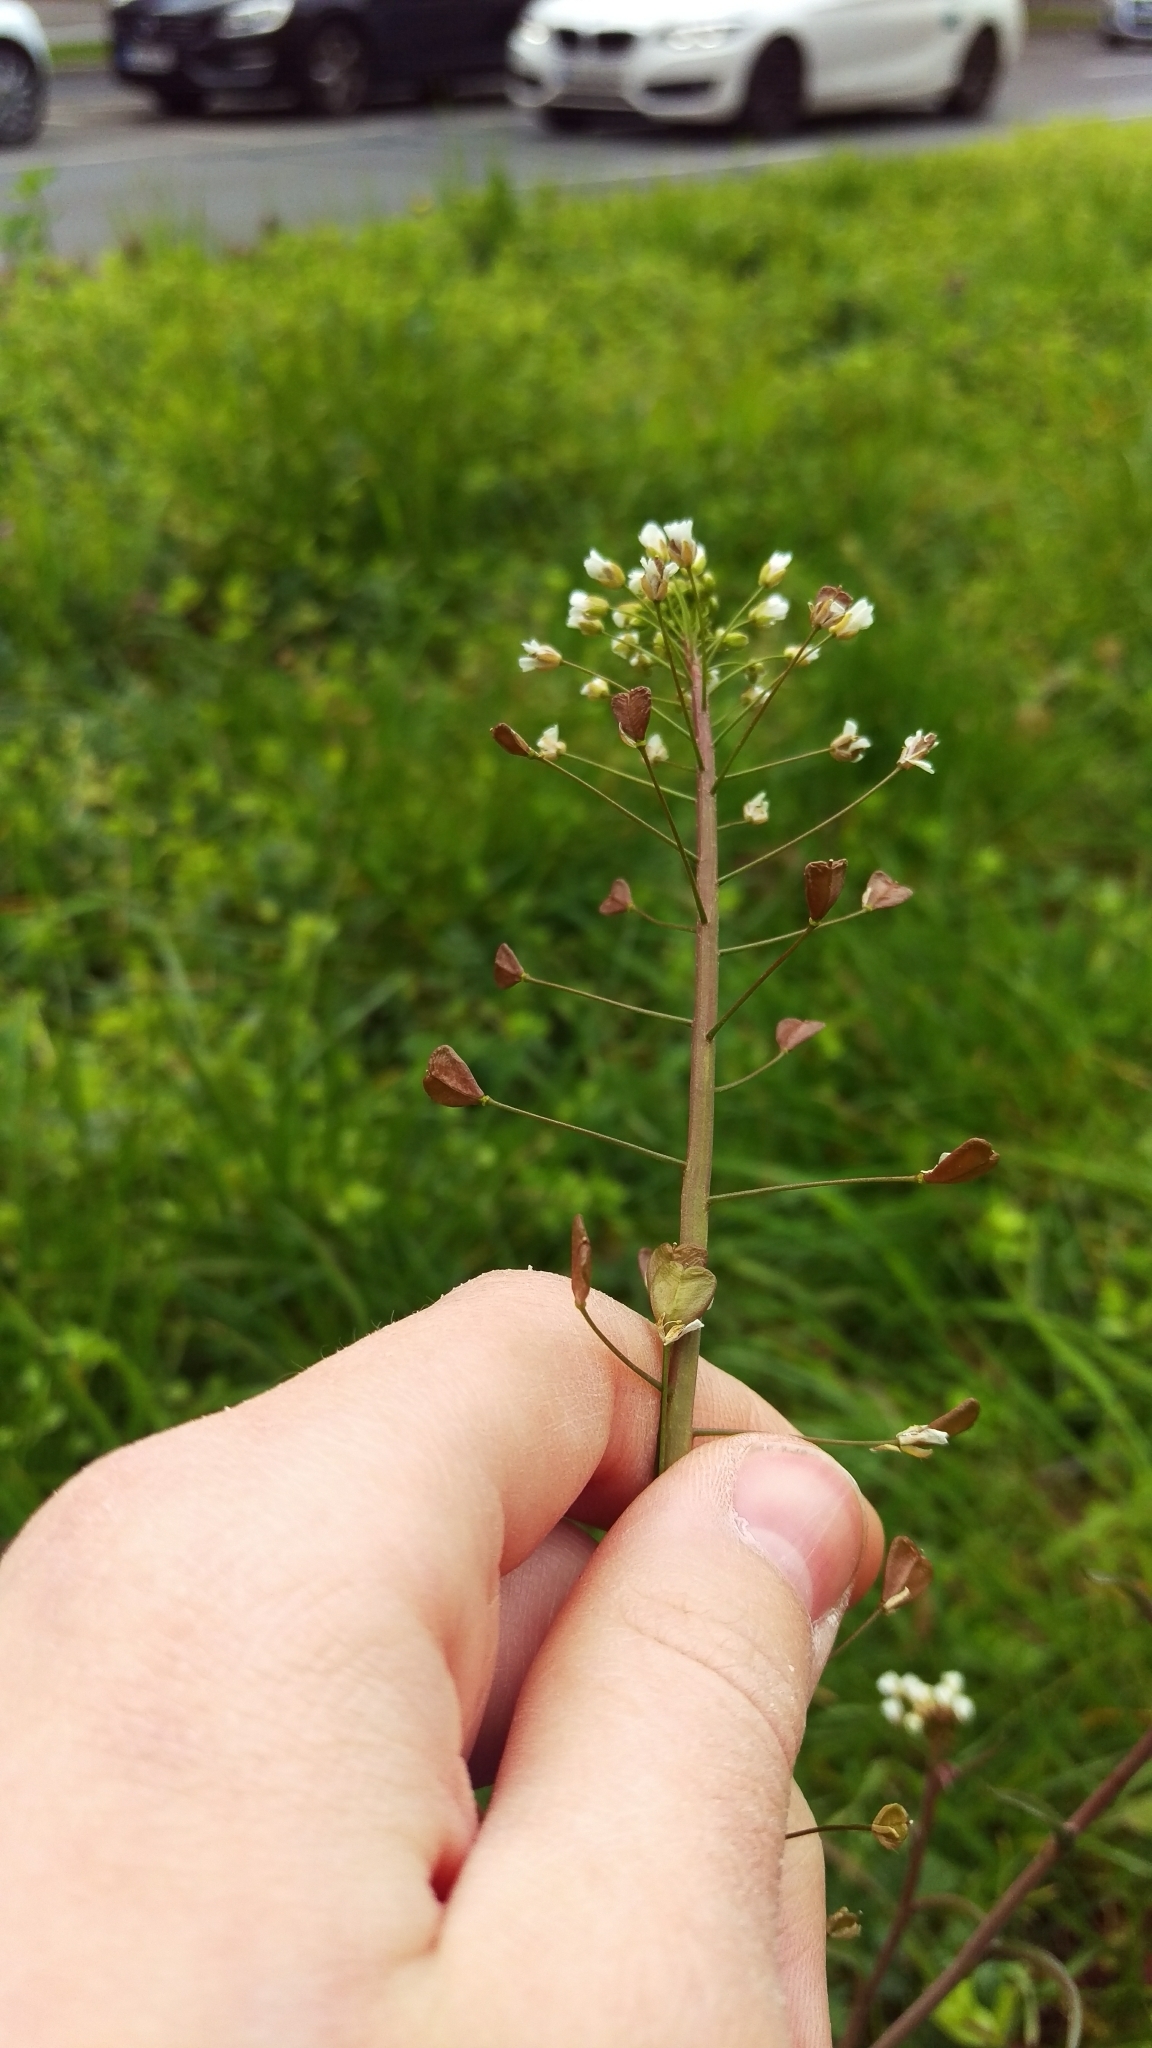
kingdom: Plantae
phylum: Tracheophyta
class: Magnoliopsida
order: Brassicales
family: Brassicaceae
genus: Capsella
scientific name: Capsella bursa-pastoris
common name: Shepherd's purse
